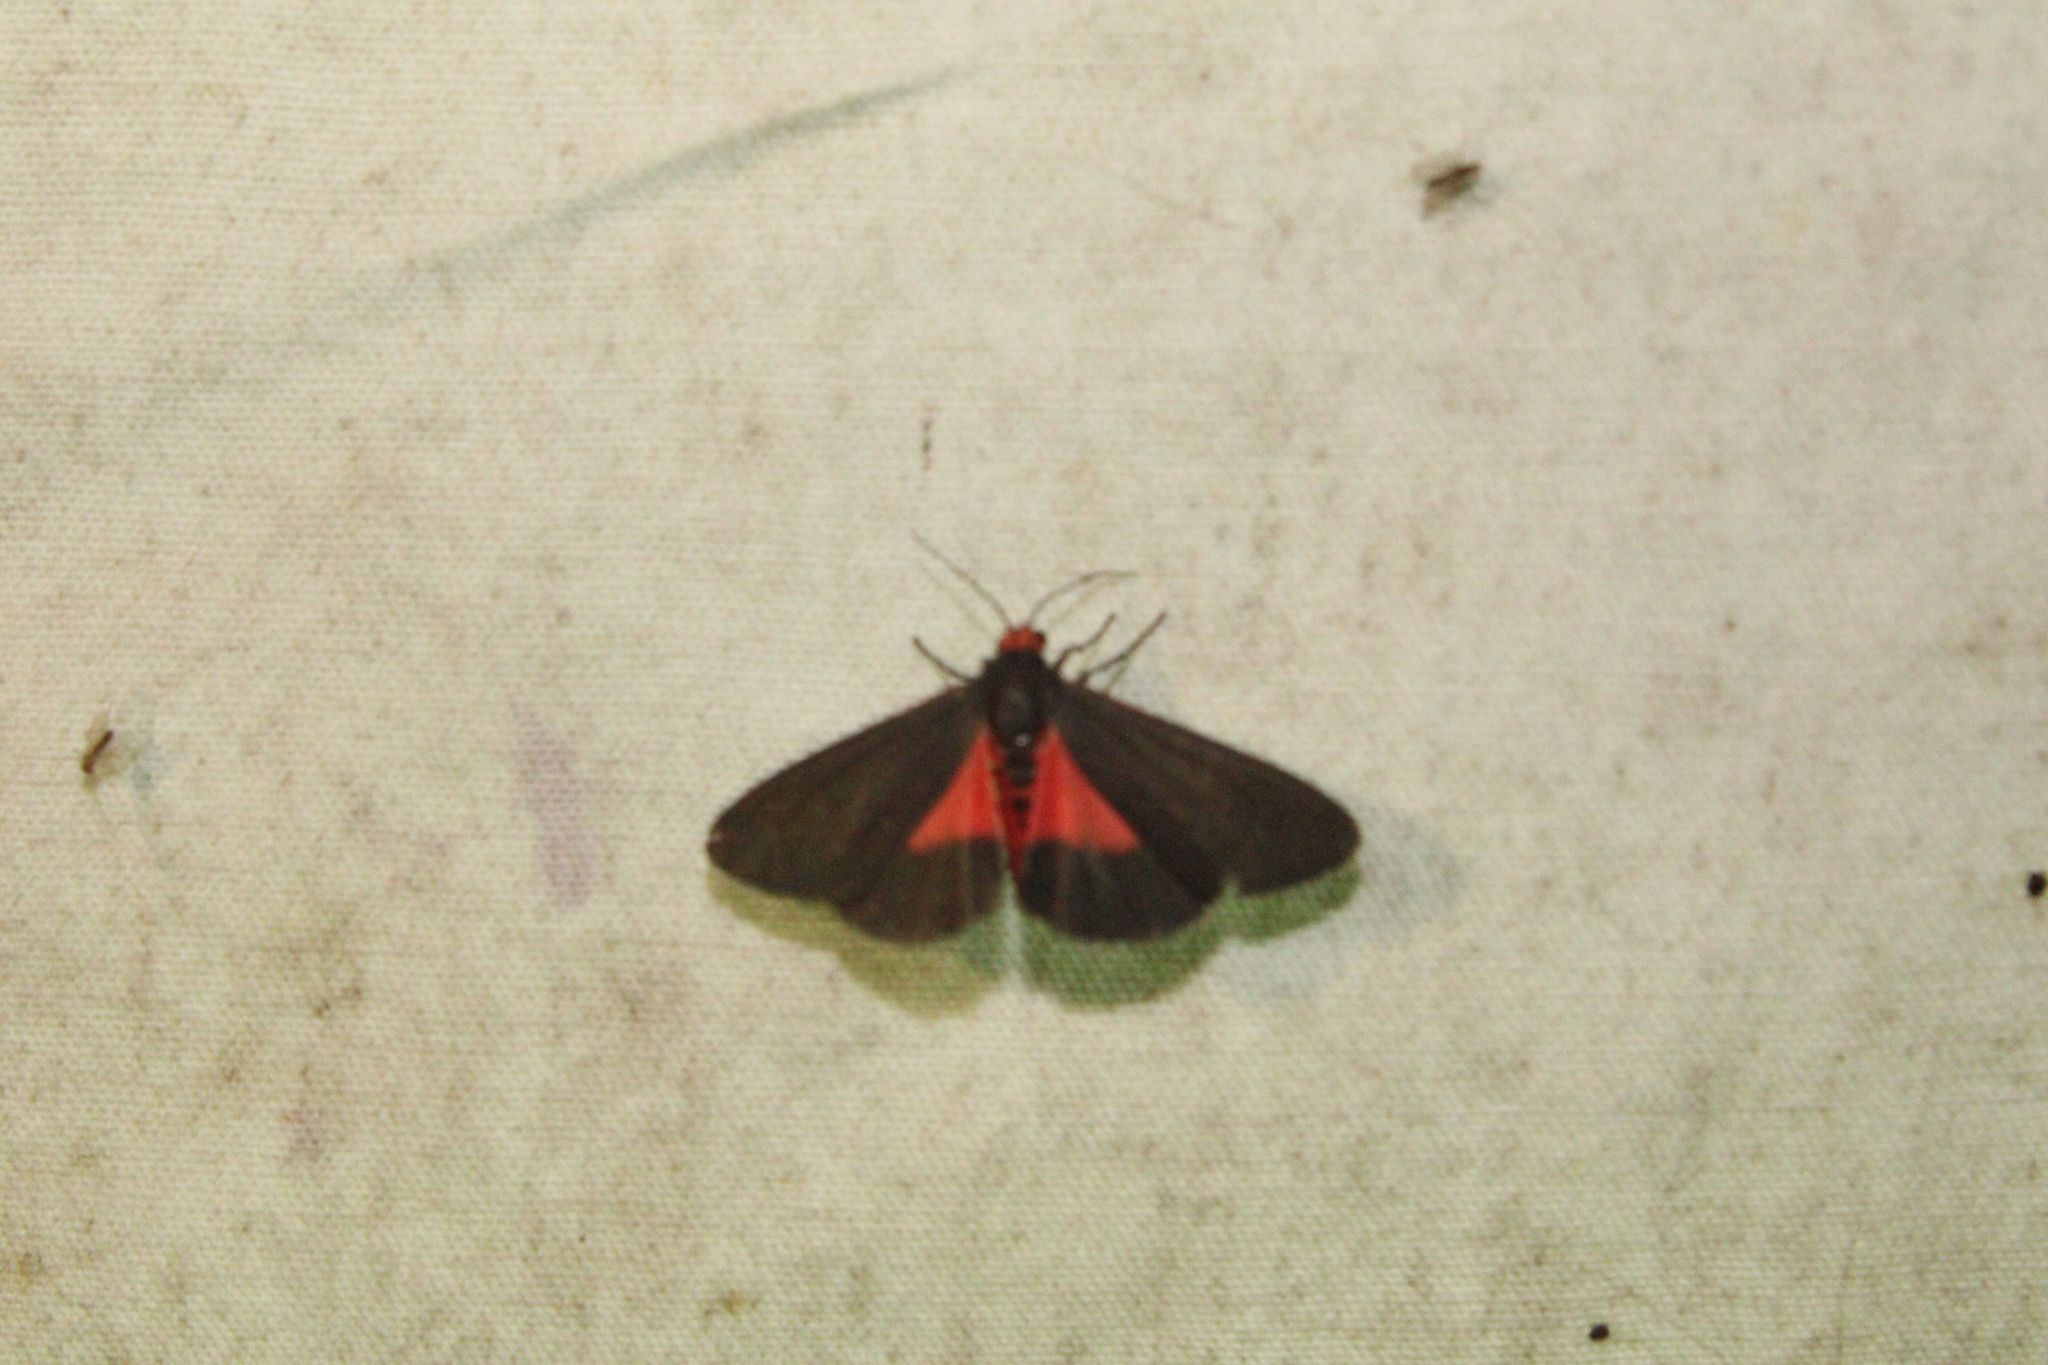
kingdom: Animalia
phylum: Arthropoda
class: Insecta
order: Lepidoptera
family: Erebidae
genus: Virbia
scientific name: Virbia laeta
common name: Joyful holomelina moth
